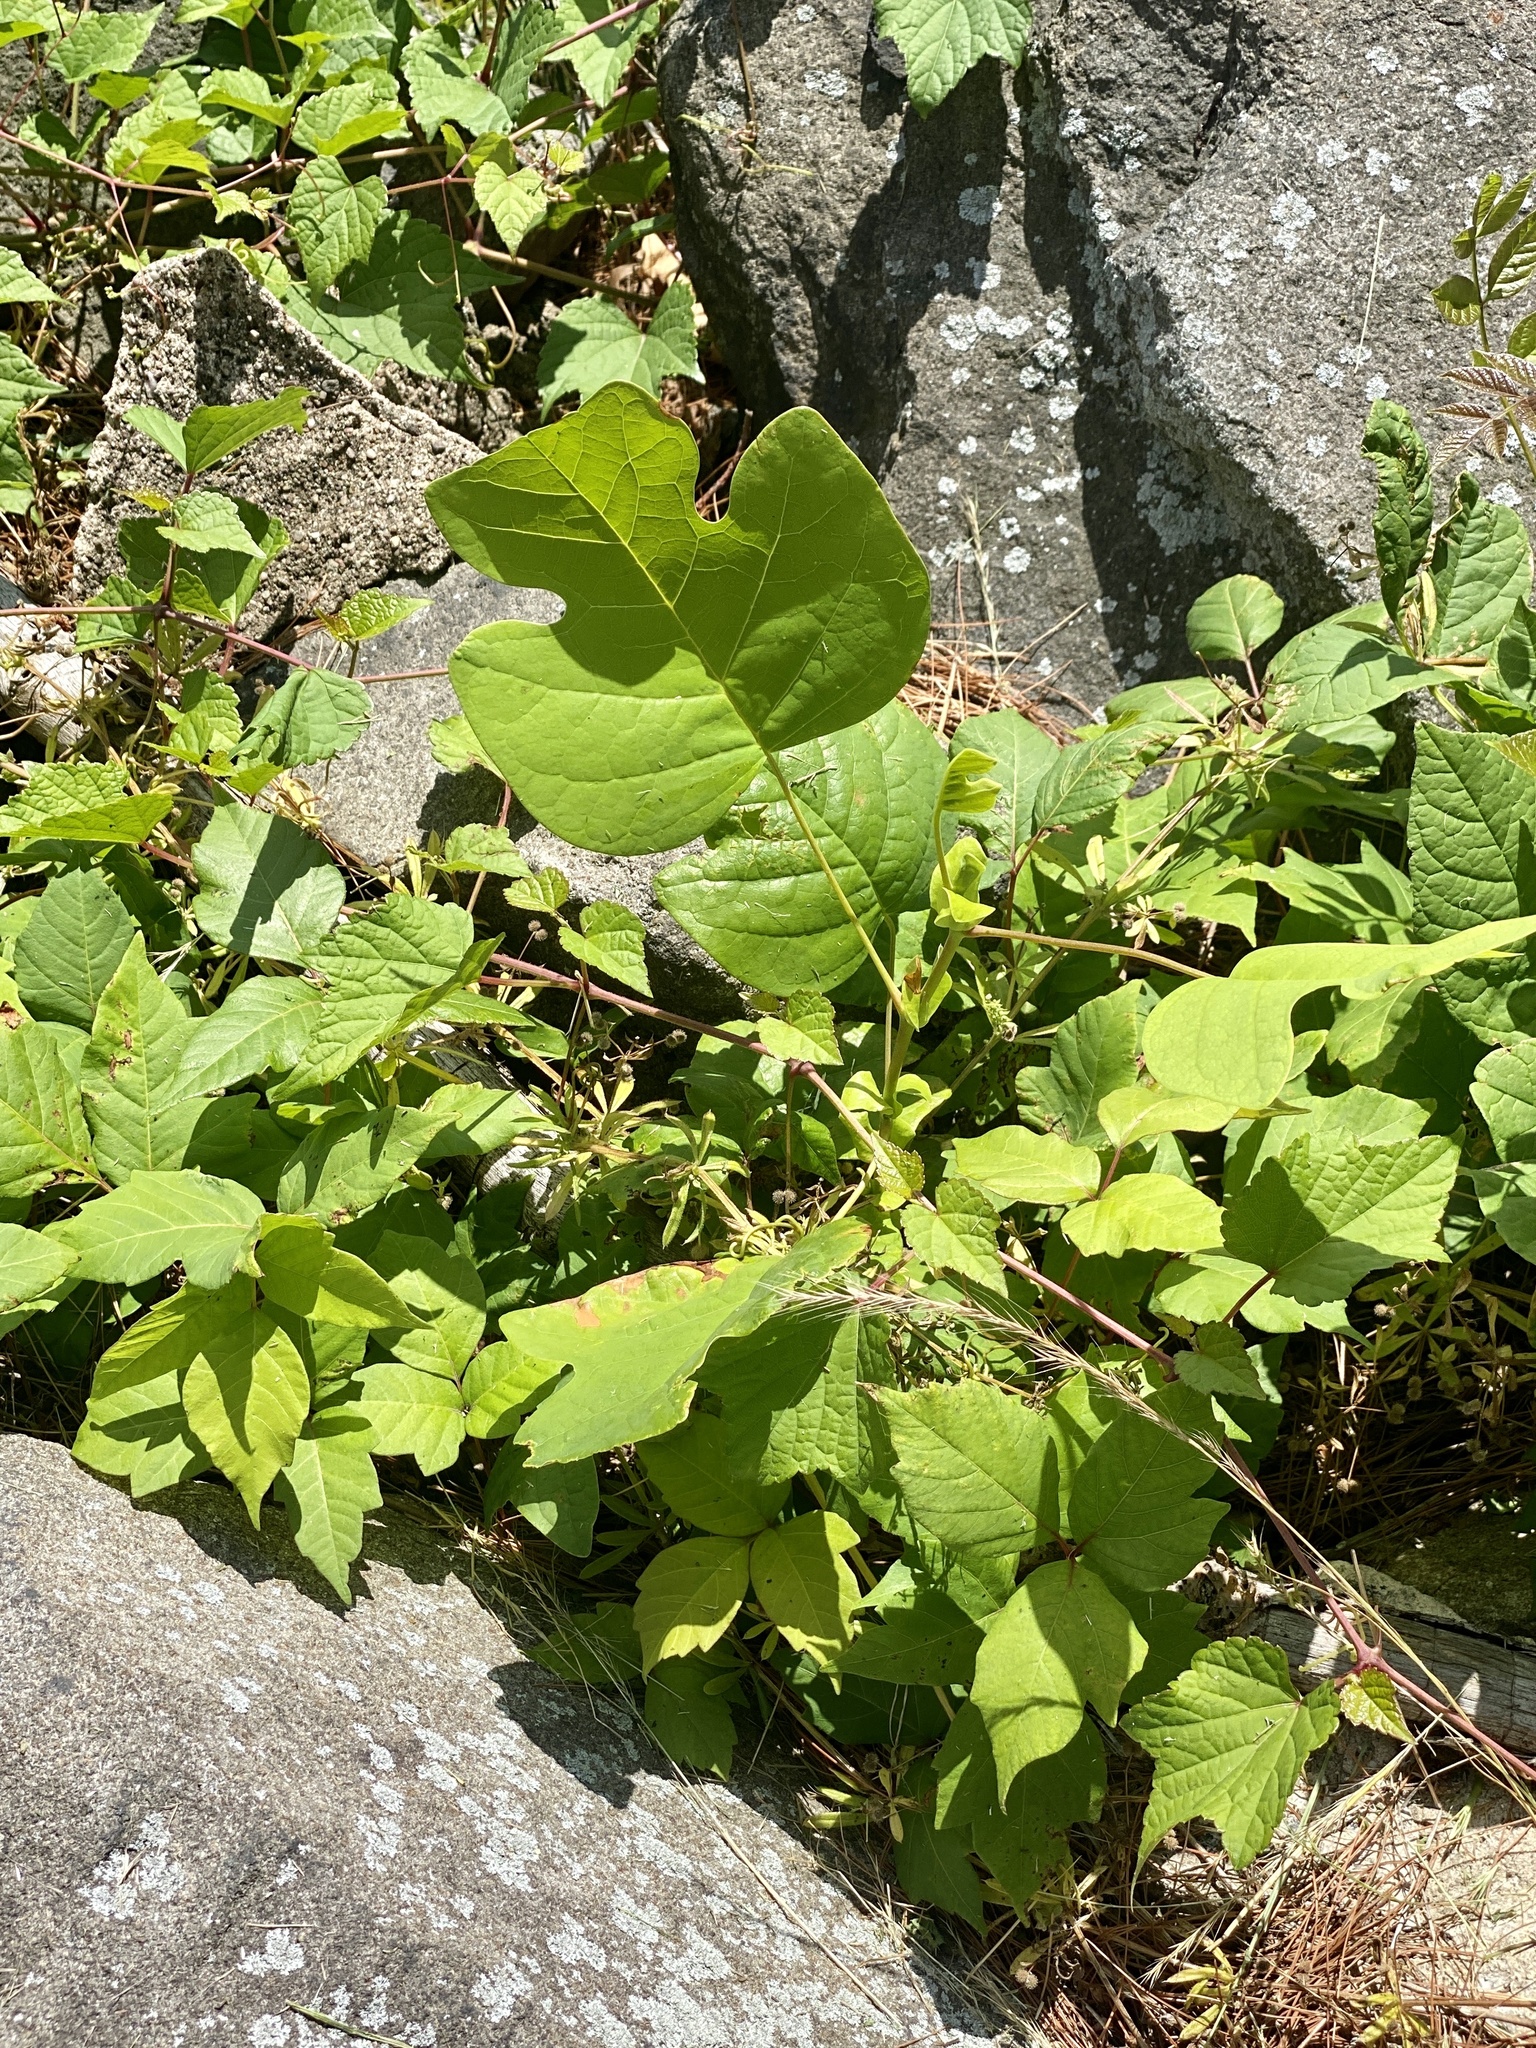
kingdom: Plantae
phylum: Tracheophyta
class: Magnoliopsida
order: Magnoliales
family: Magnoliaceae
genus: Liriodendron
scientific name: Liriodendron tulipifera
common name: Tulip tree
